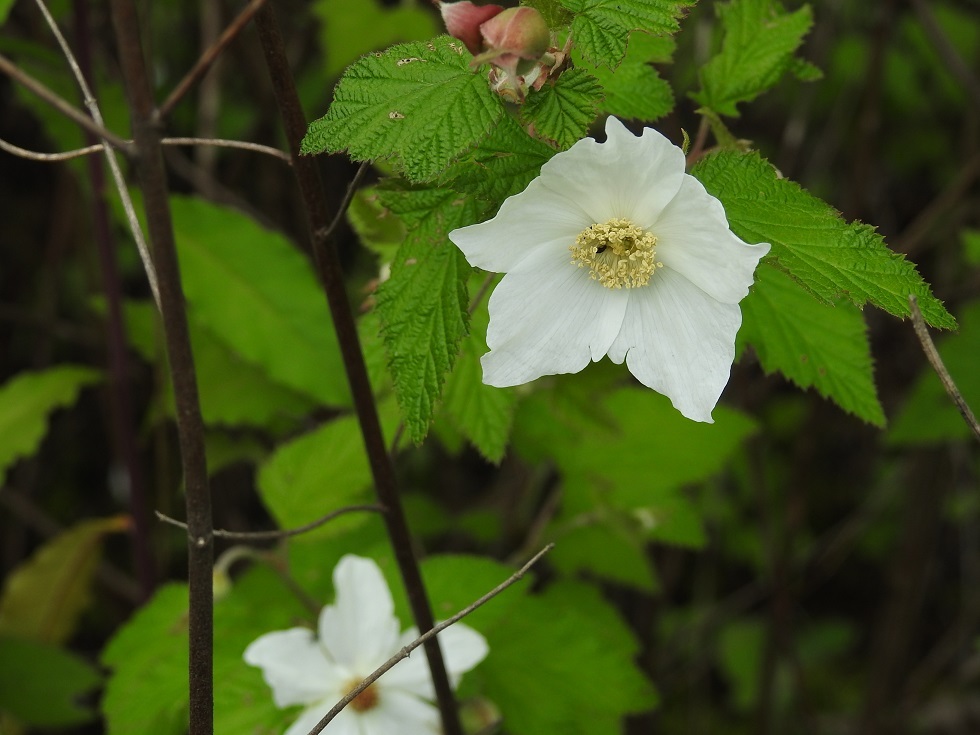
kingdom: Plantae
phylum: Tracheophyta
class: Magnoliopsida
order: Rosales
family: Rosaceae
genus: Rubus
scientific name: Rubus trilobus
